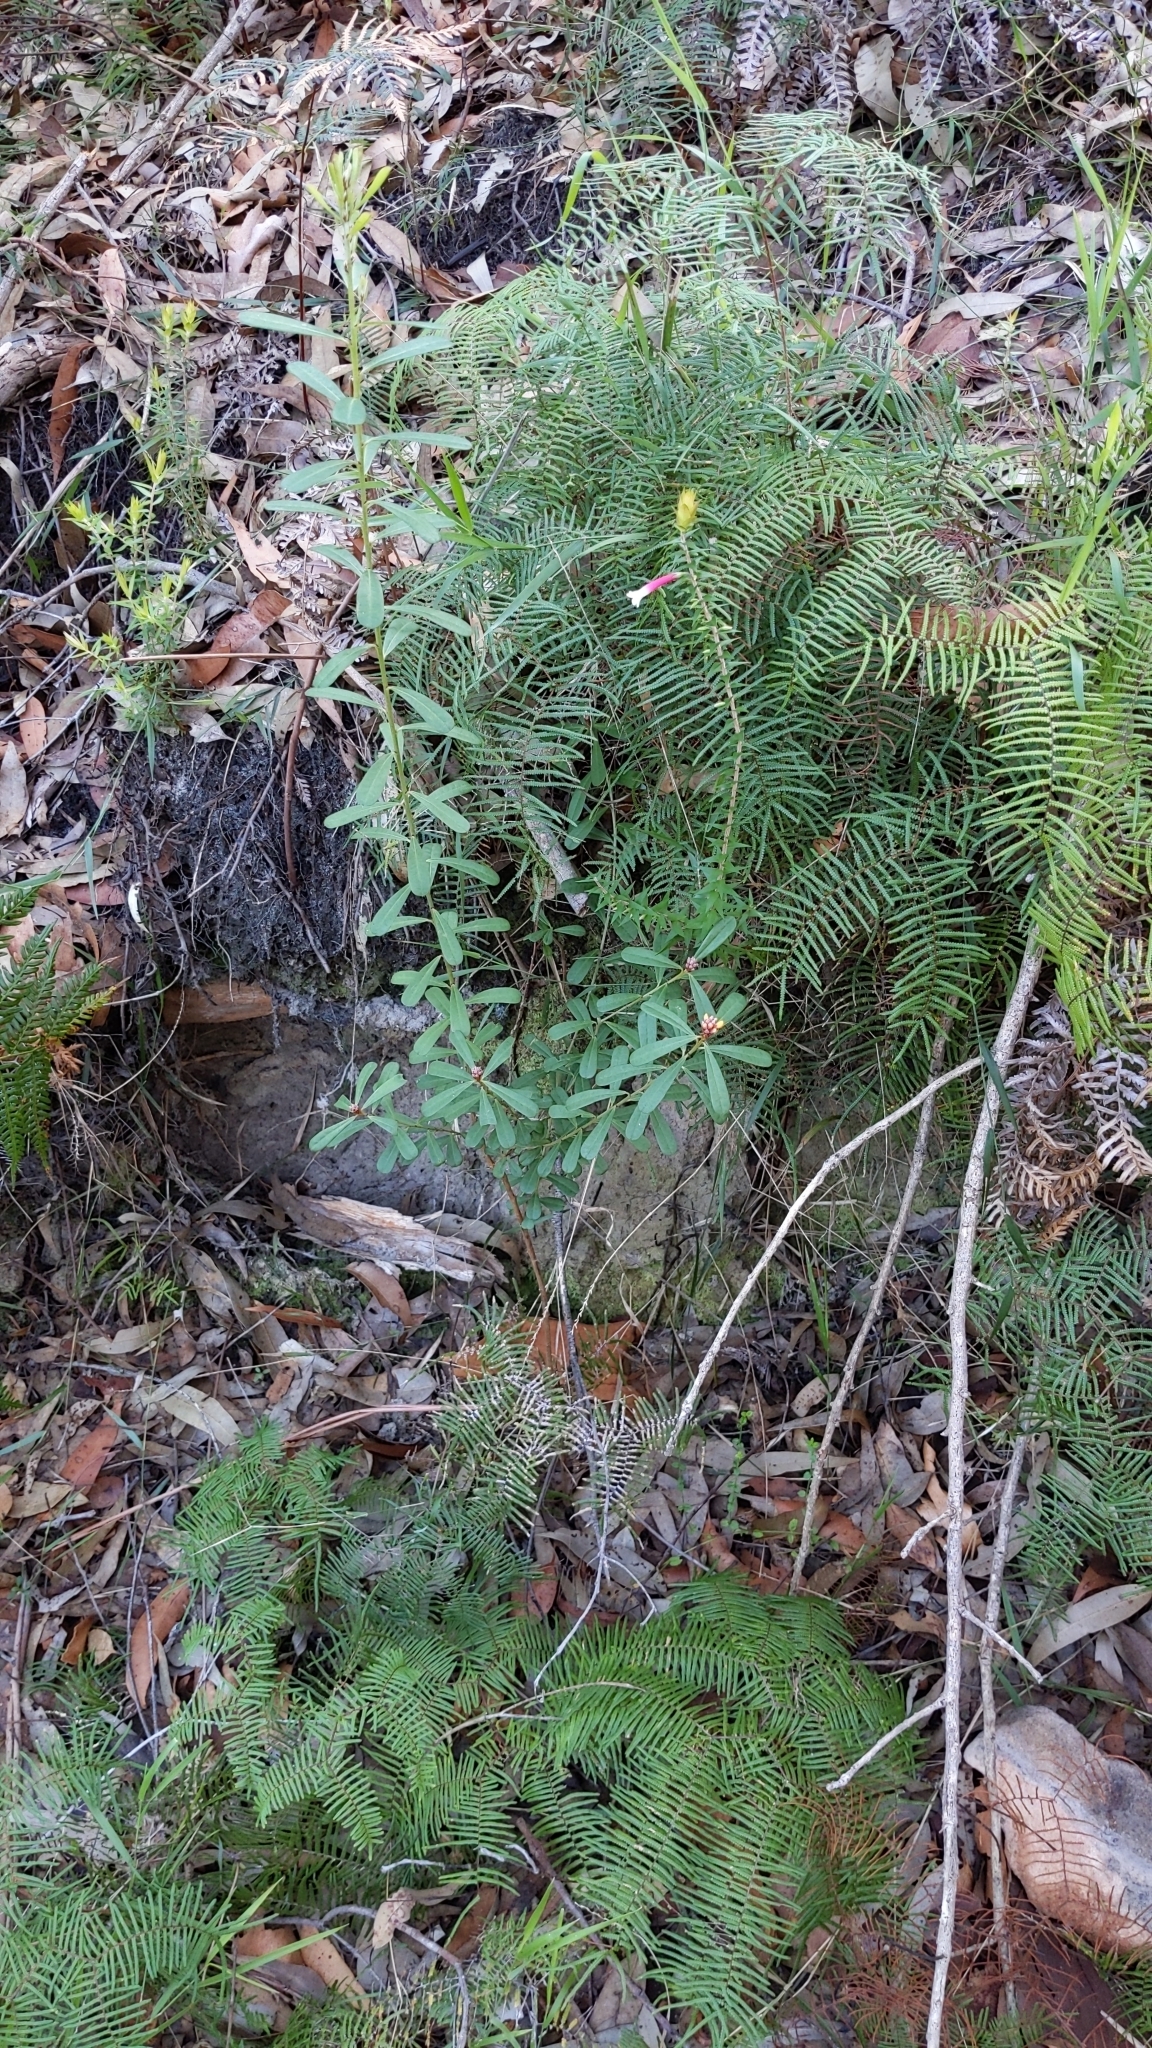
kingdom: Plantae
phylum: Tracheophyta
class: Magnoliopsida
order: Fabales
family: Fabaceae
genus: Pultenaea
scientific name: Pultenaea daphnoides
